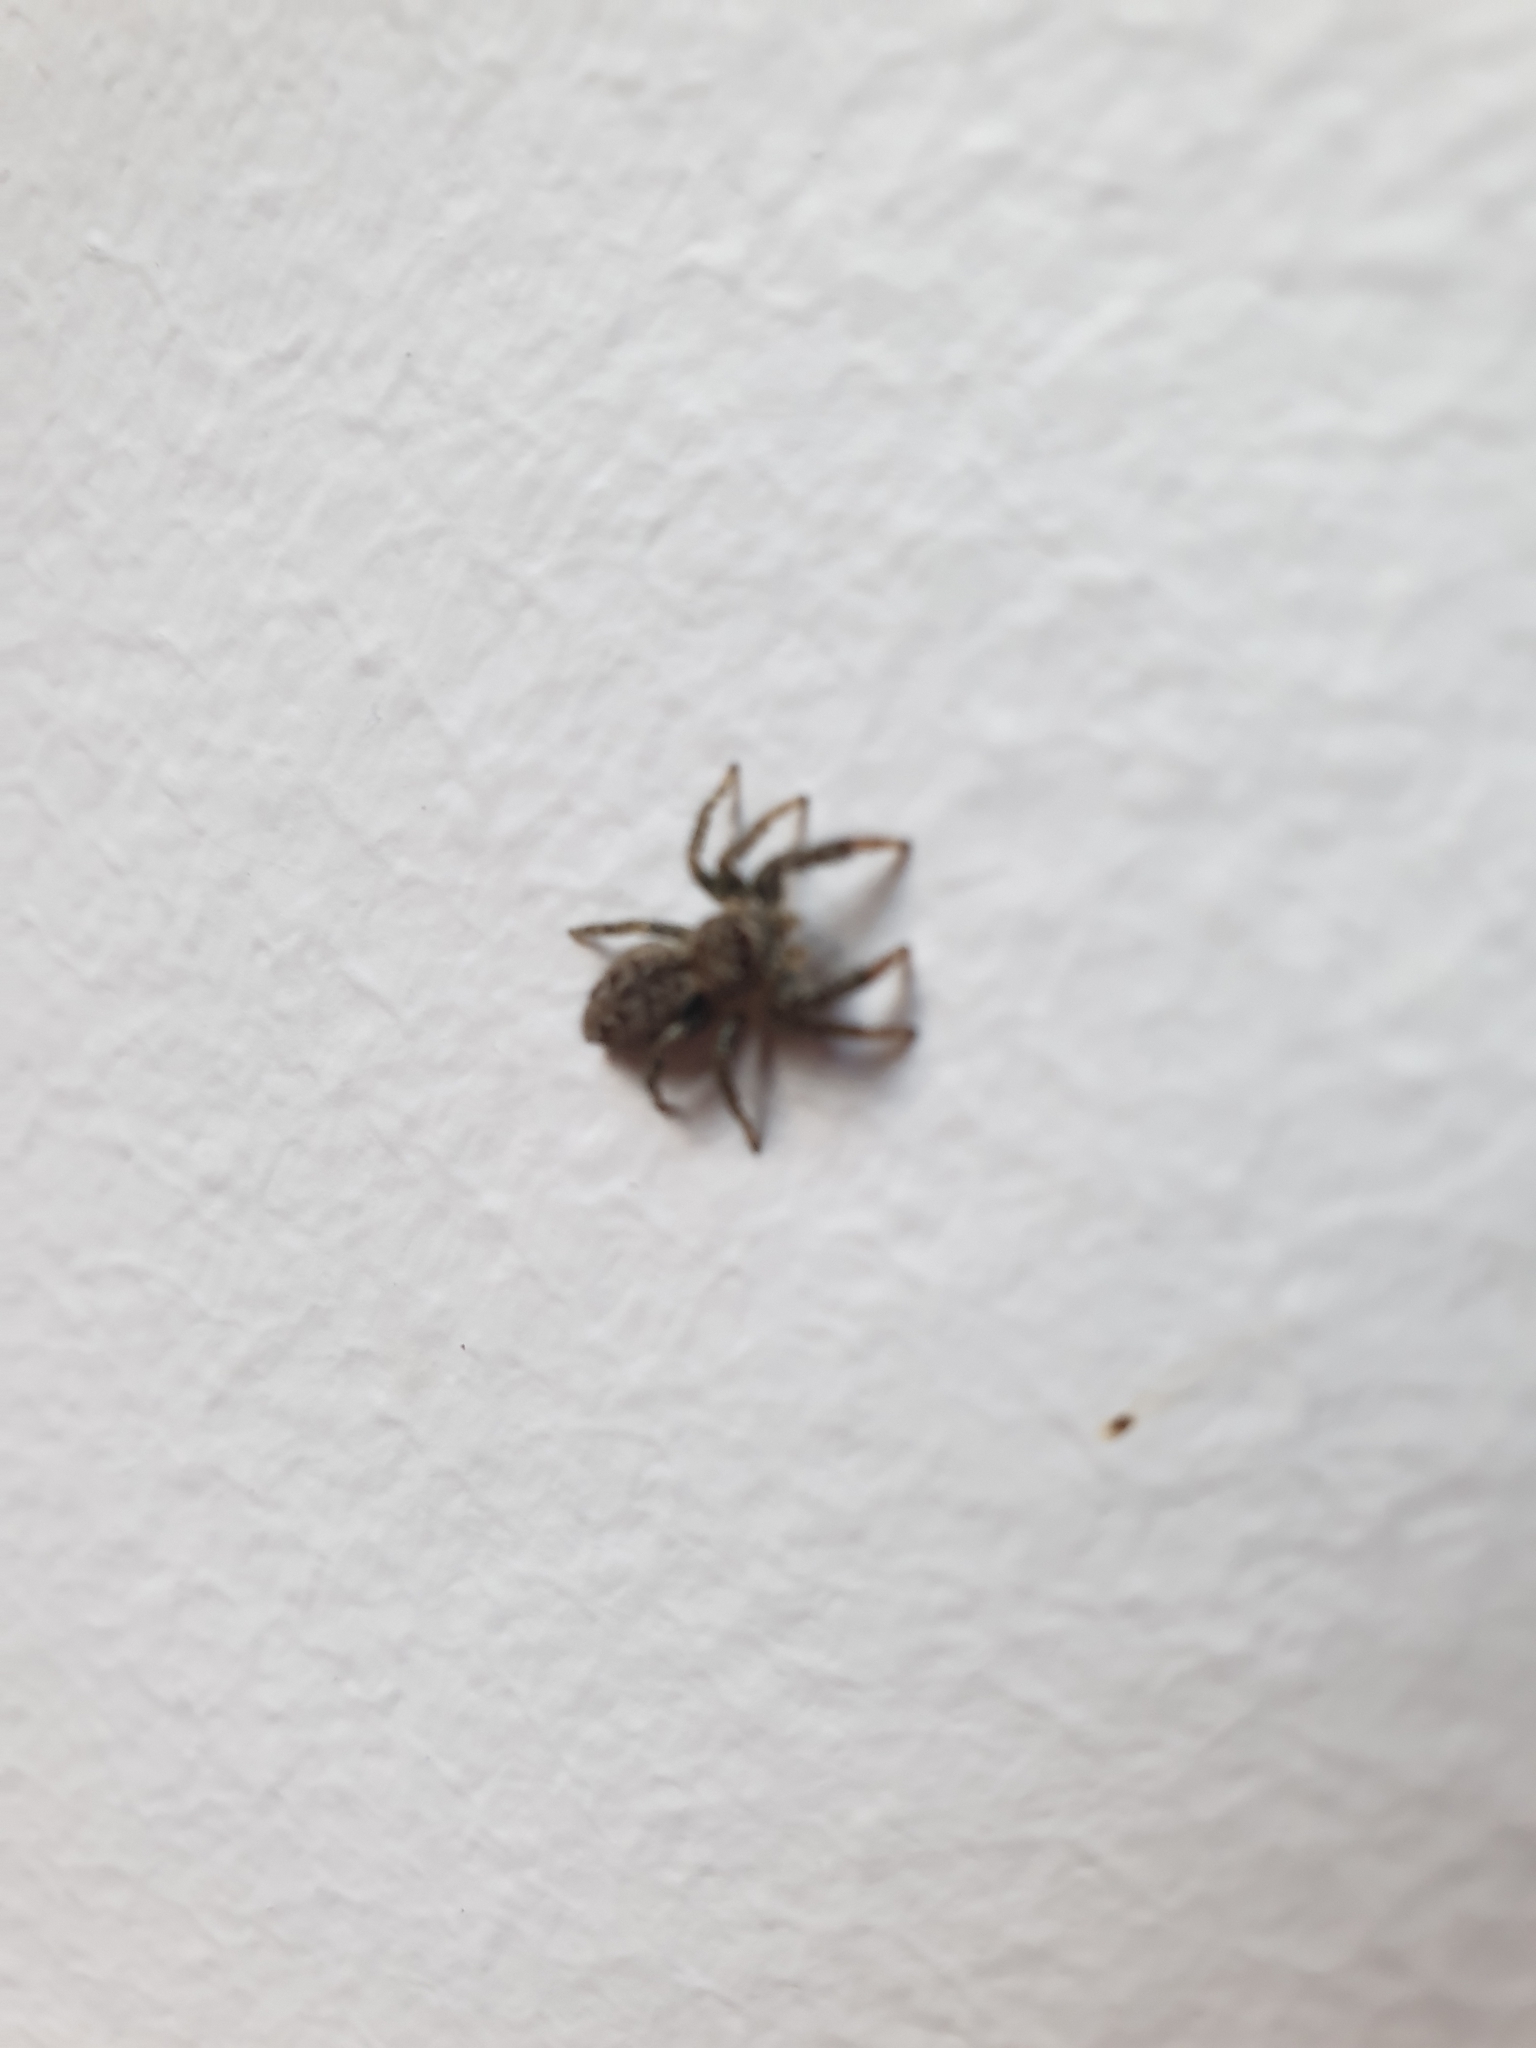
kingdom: Animalia
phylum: Arthropoda
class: Arachnida
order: Araneae
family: Salticidae
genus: Marpissa
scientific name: Marpissa muscosa
